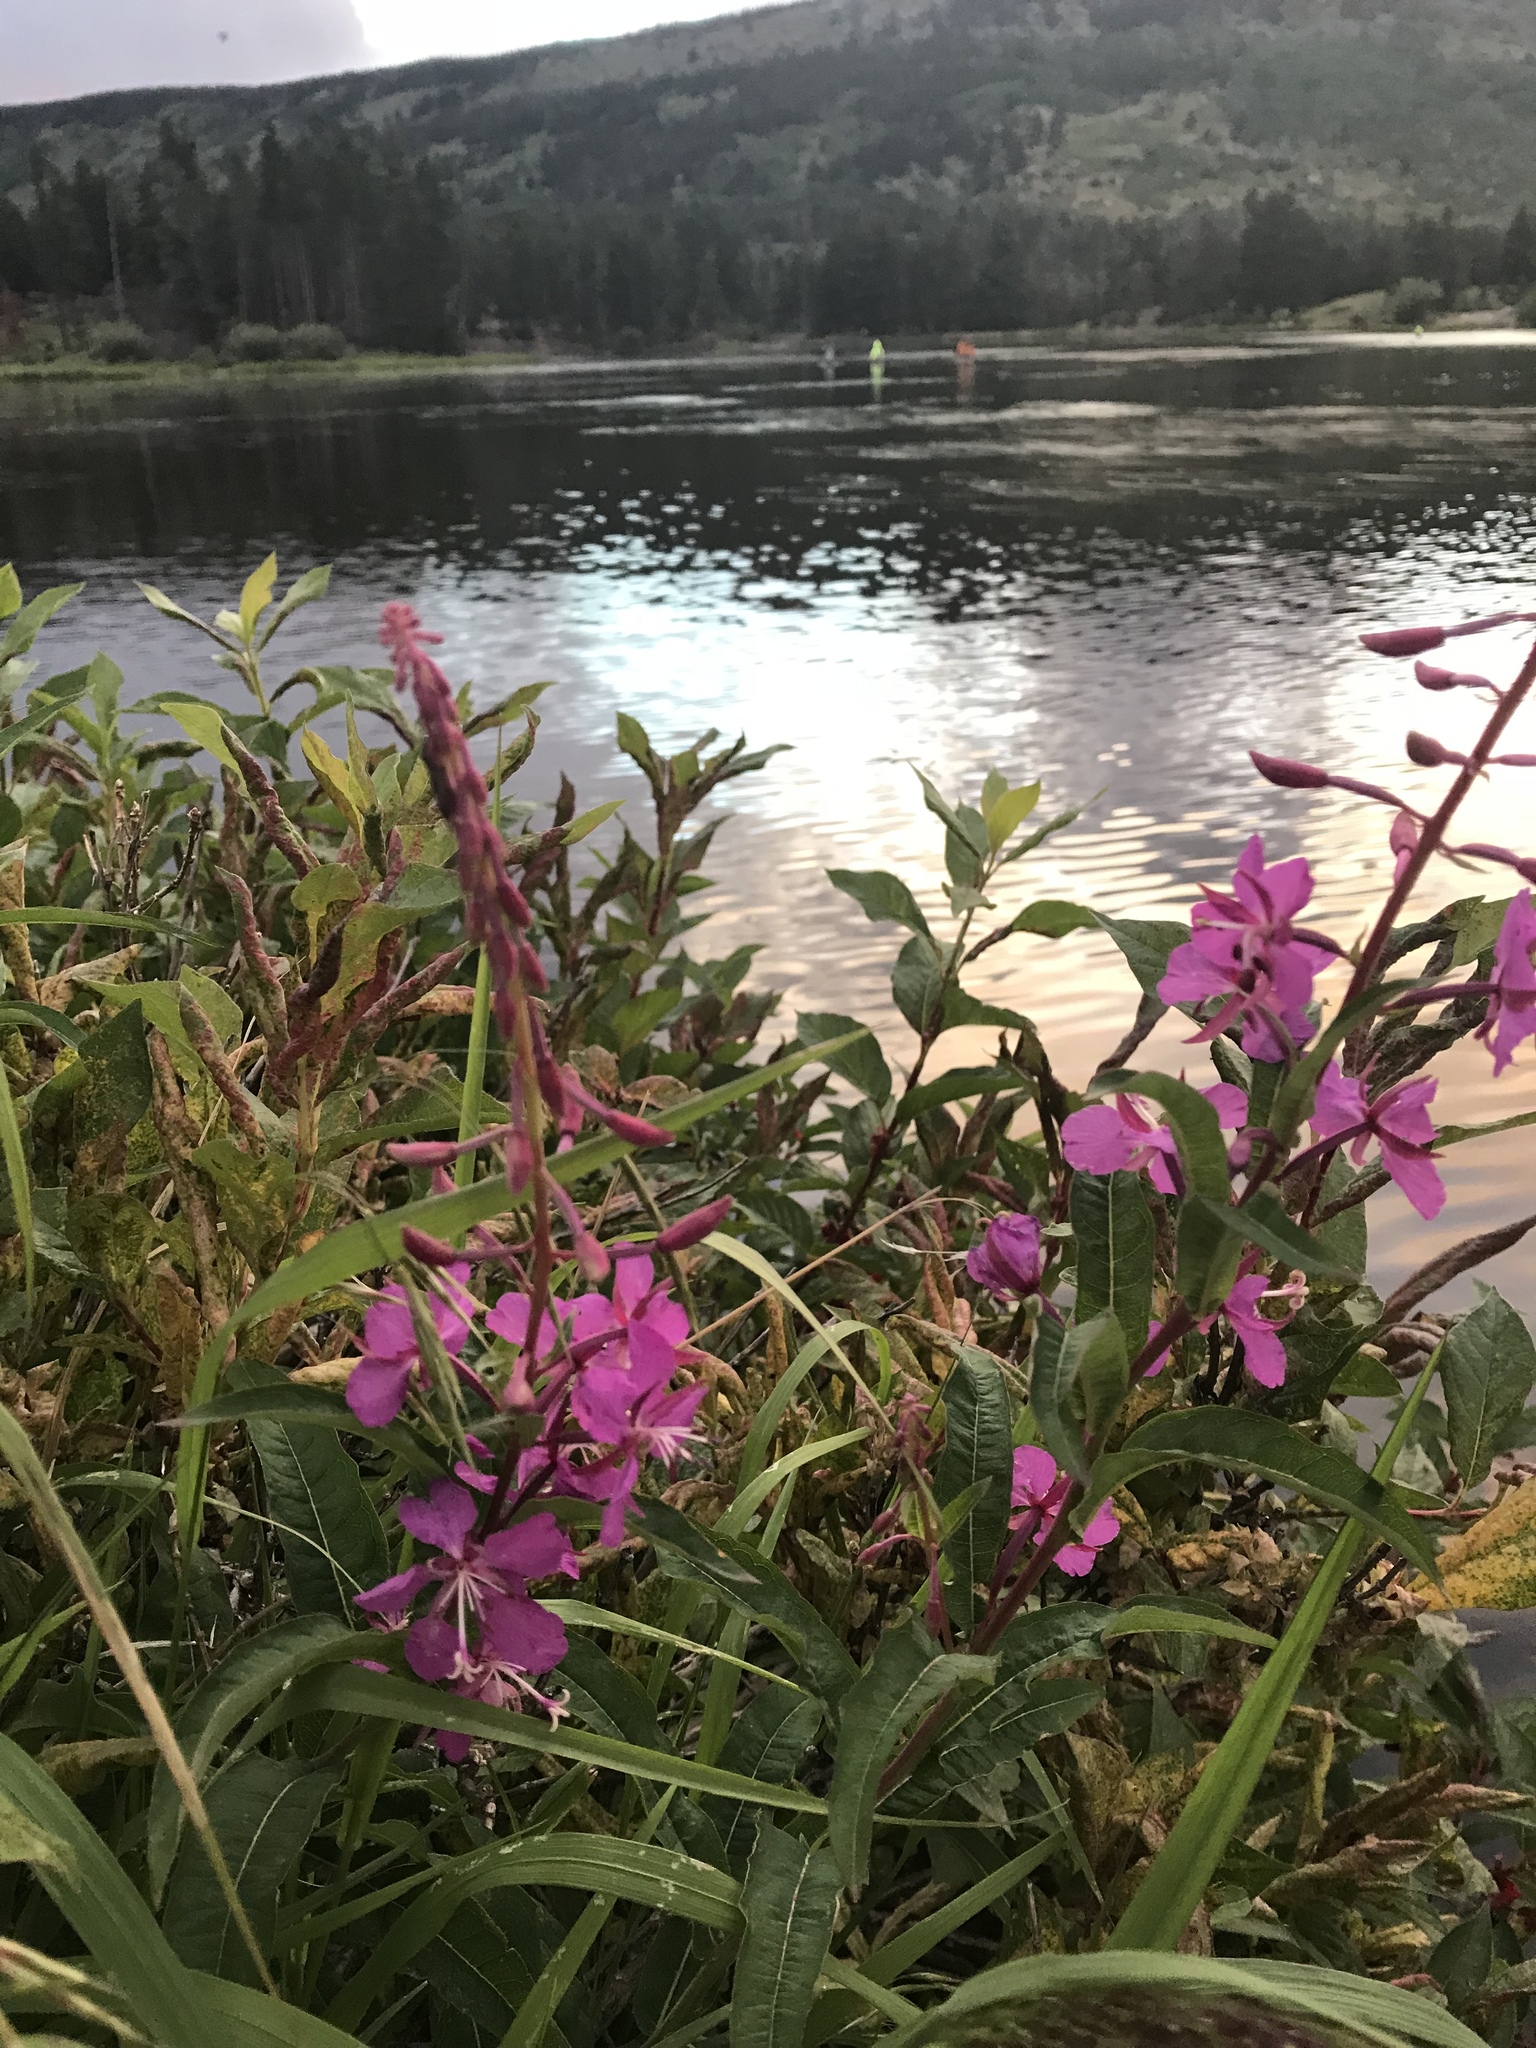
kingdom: Plantae
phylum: Tracheophyta
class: Magnoliopsida
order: Myrtales
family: Onagraceae
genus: Chamaenerion
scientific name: Chamaenerion angustifolium
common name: Fireweed
